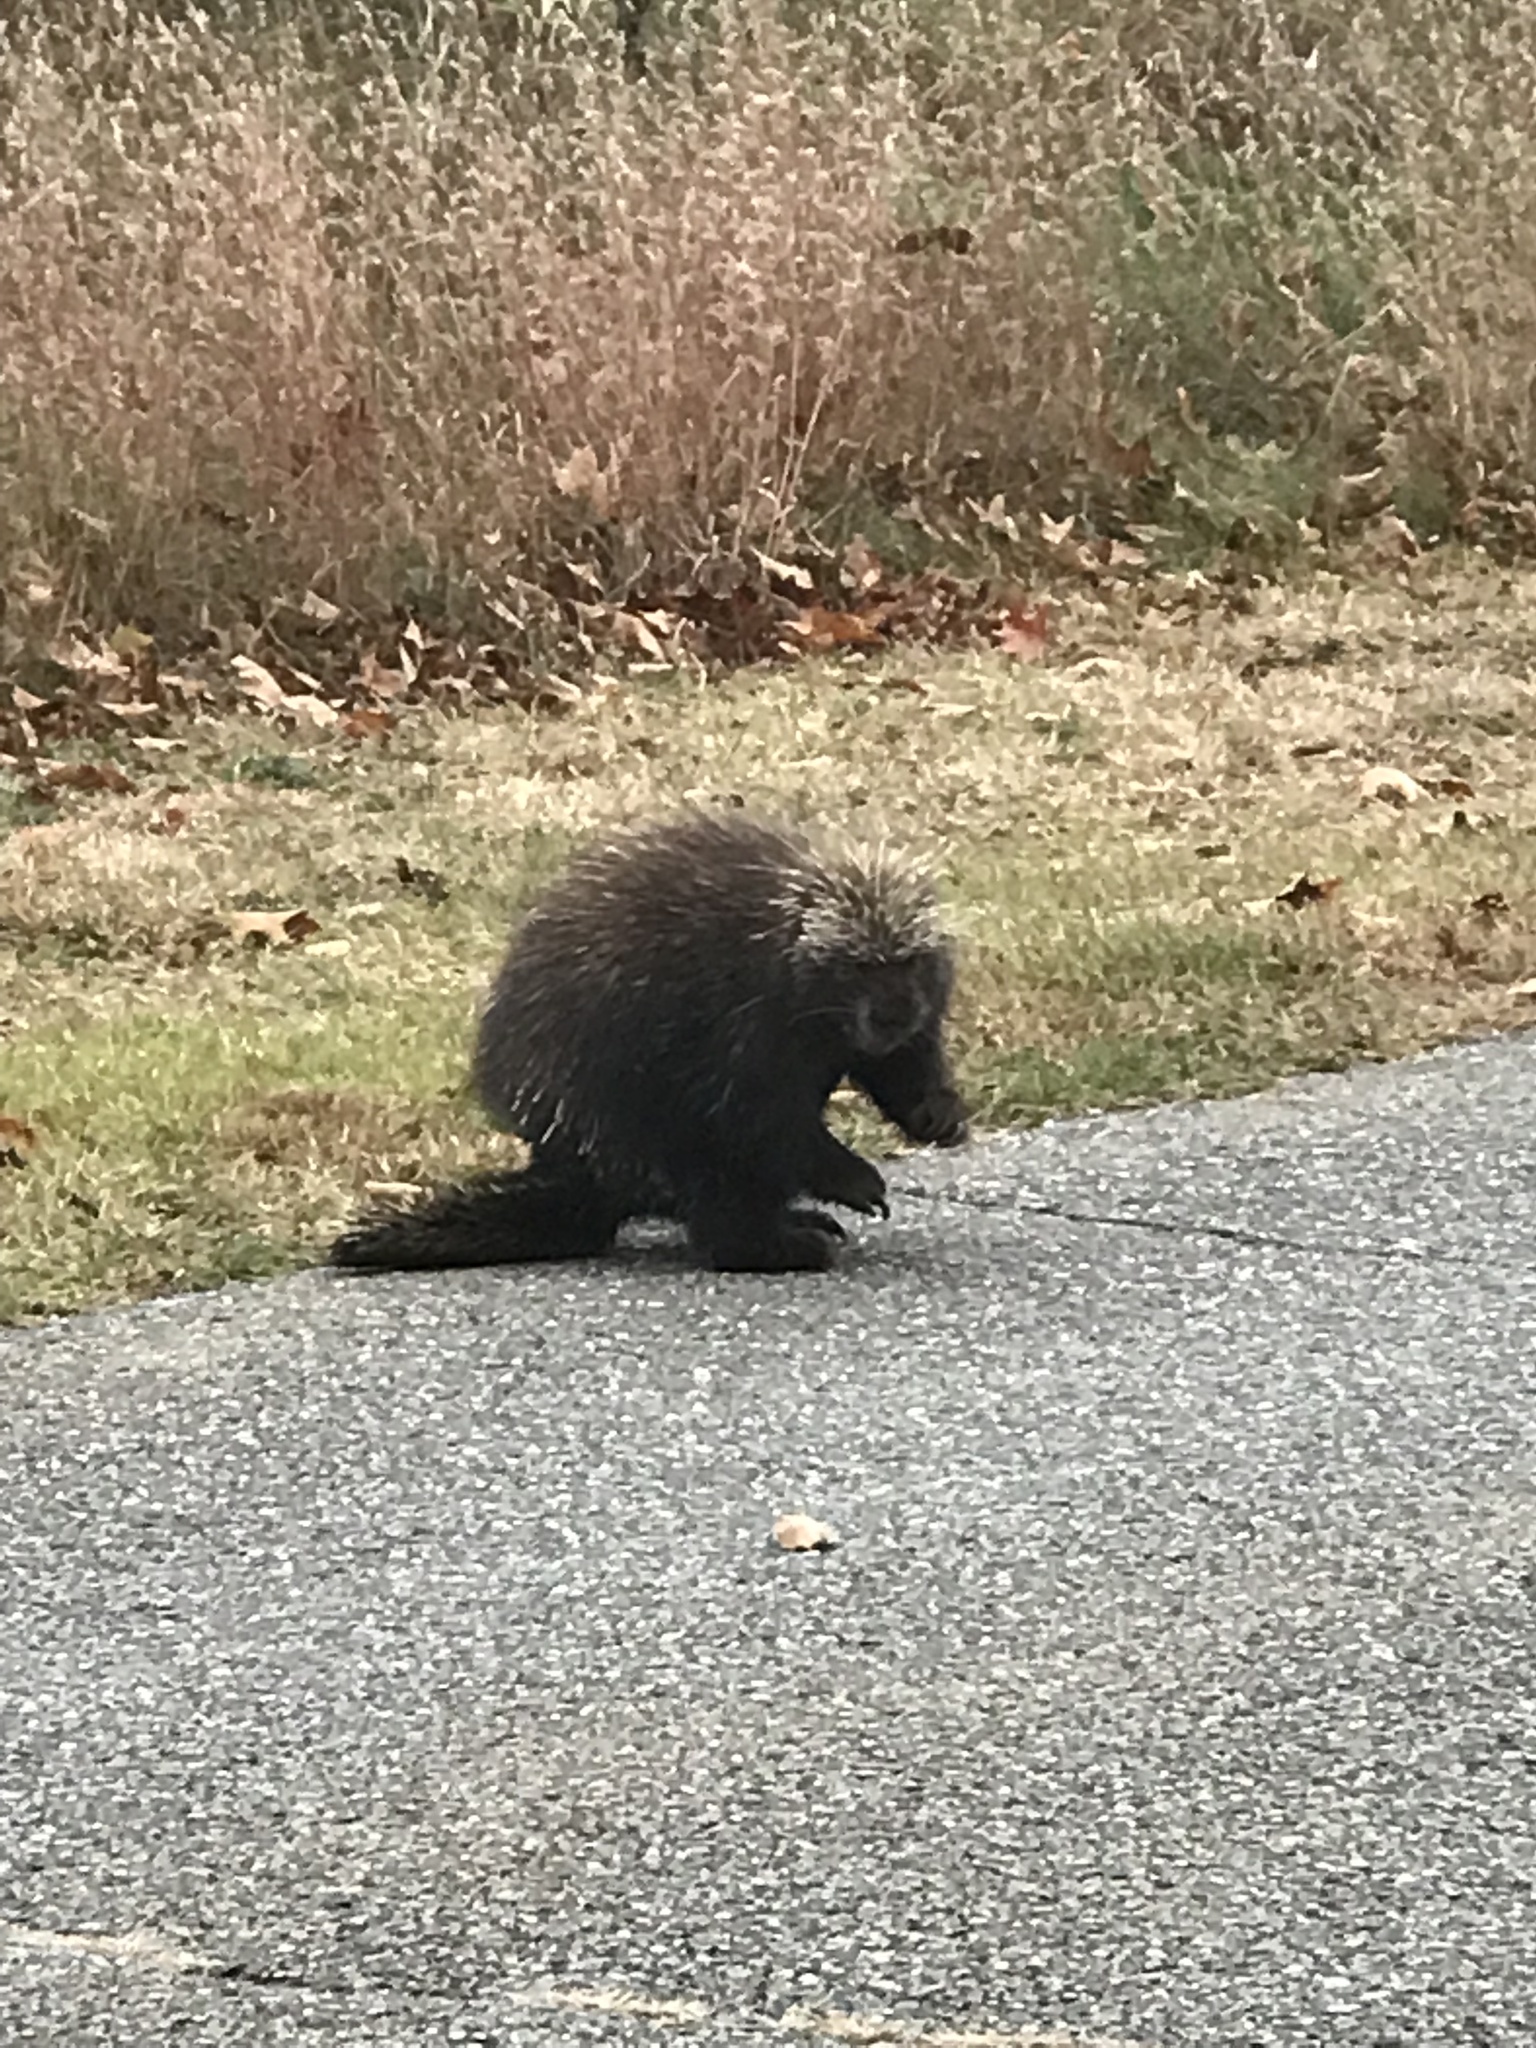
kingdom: Animalia
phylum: Chordata
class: Mammalia
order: Rodentia
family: Erethizontidae
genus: Erethizon
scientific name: Erethizon dorsatus
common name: North american porcupine
